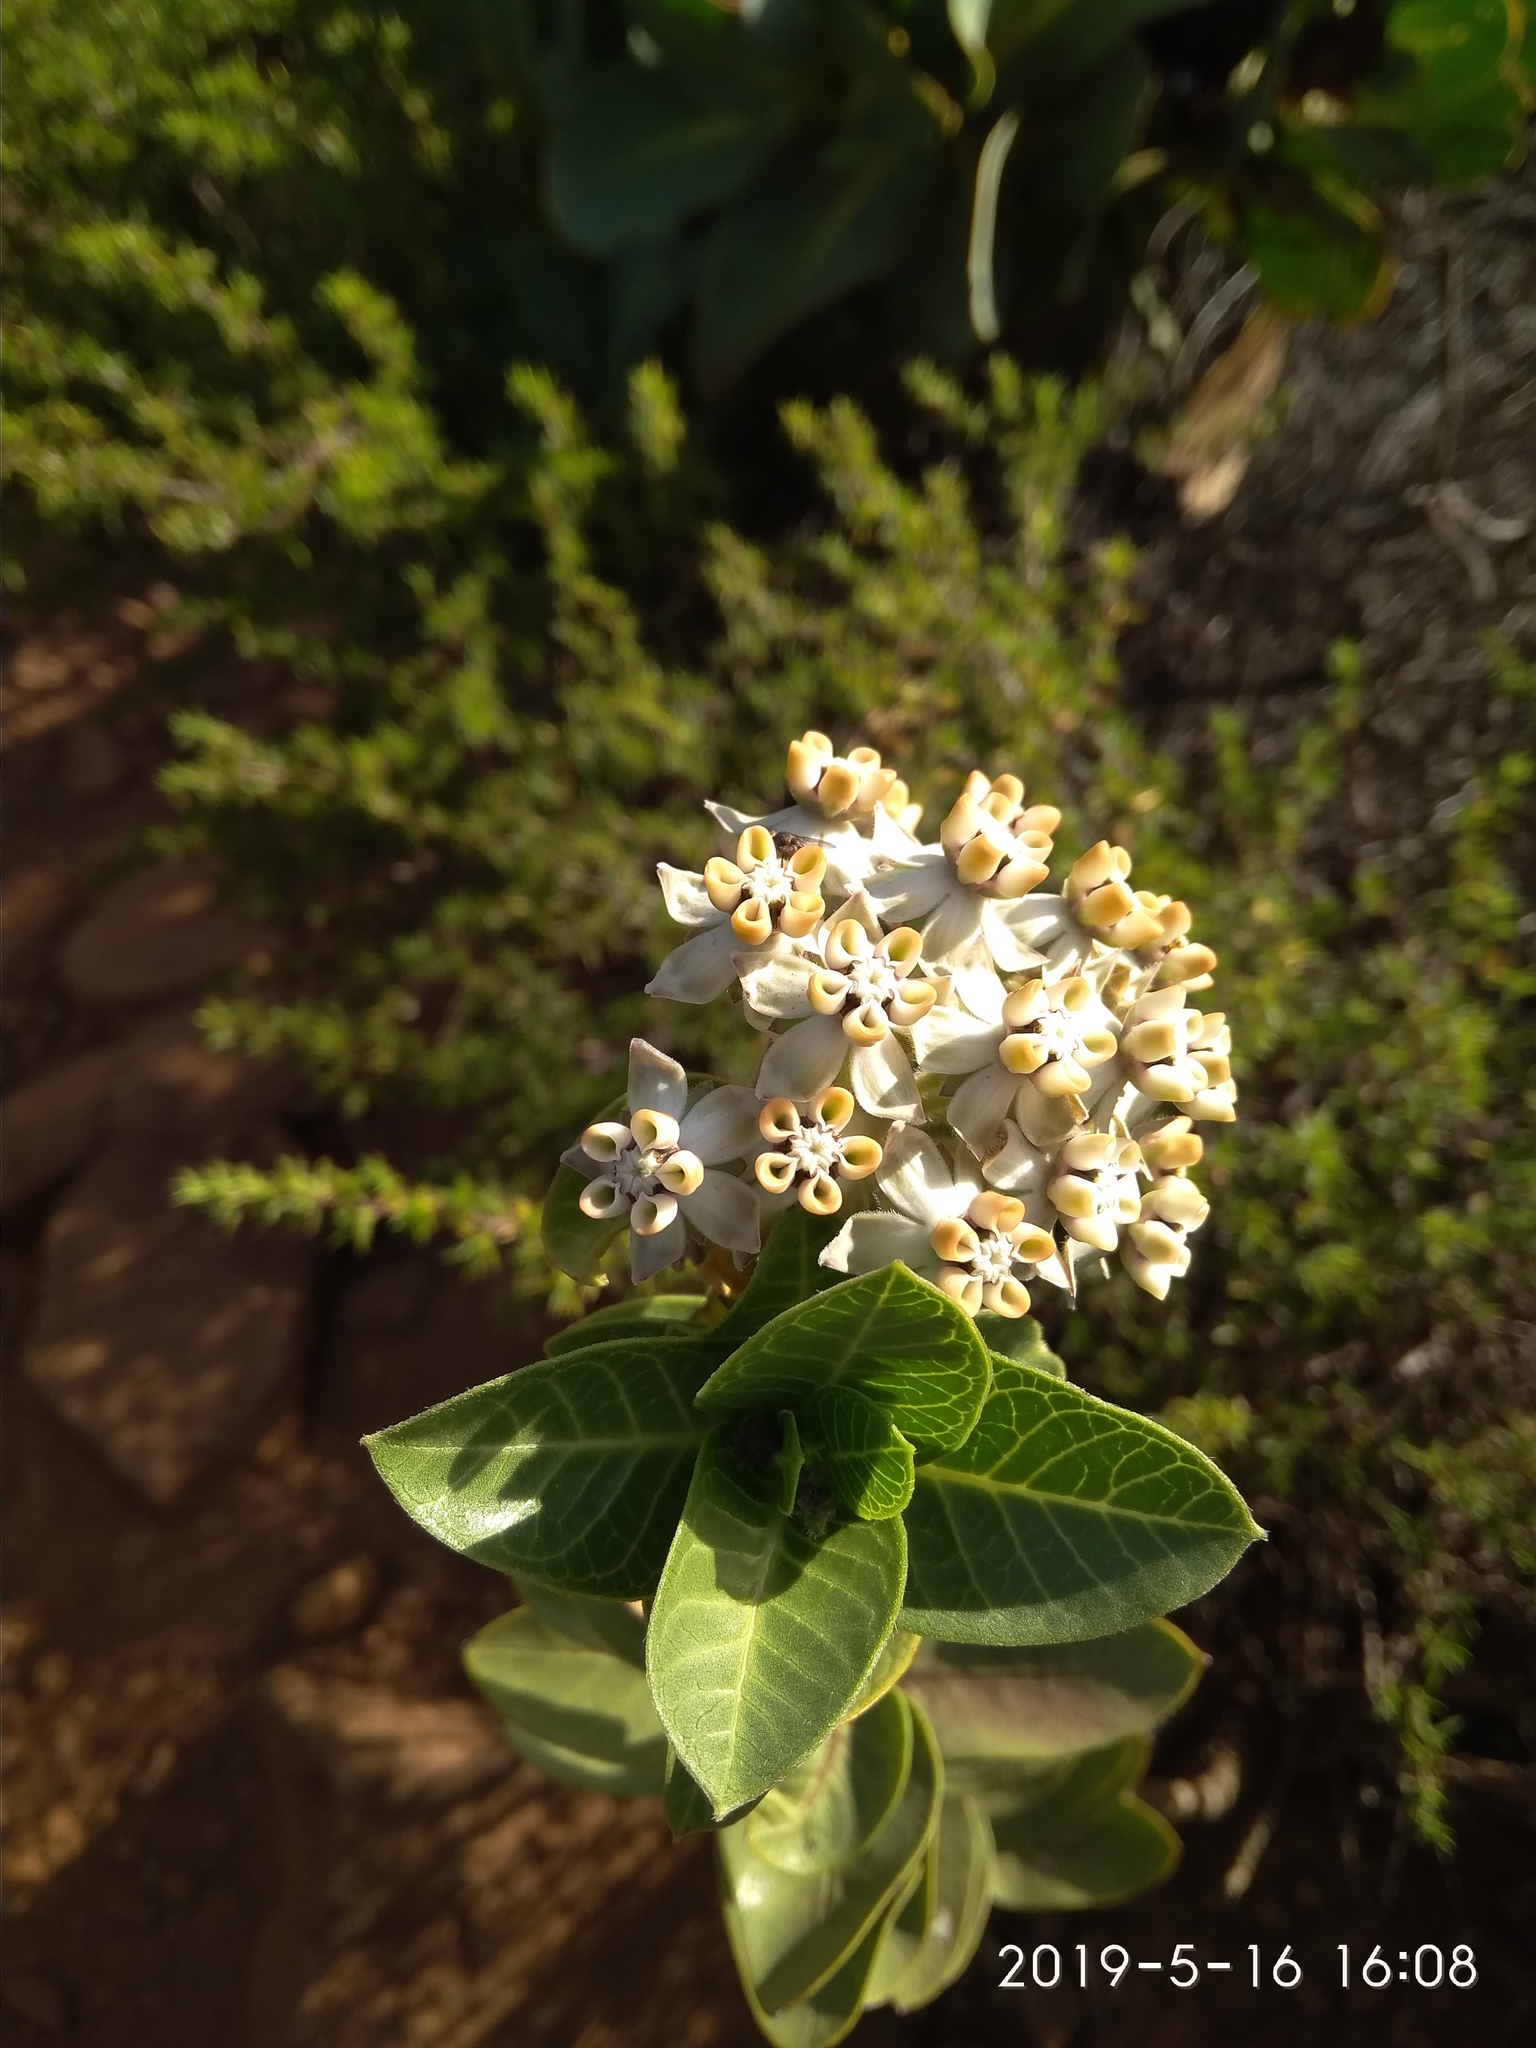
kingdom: Plantae
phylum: Tracheophyta
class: Magnoliopsida
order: Gentianales
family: Apocynaceae
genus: Gomphocarpus
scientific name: Gomphocarpus cancellatus
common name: Wild cotton
